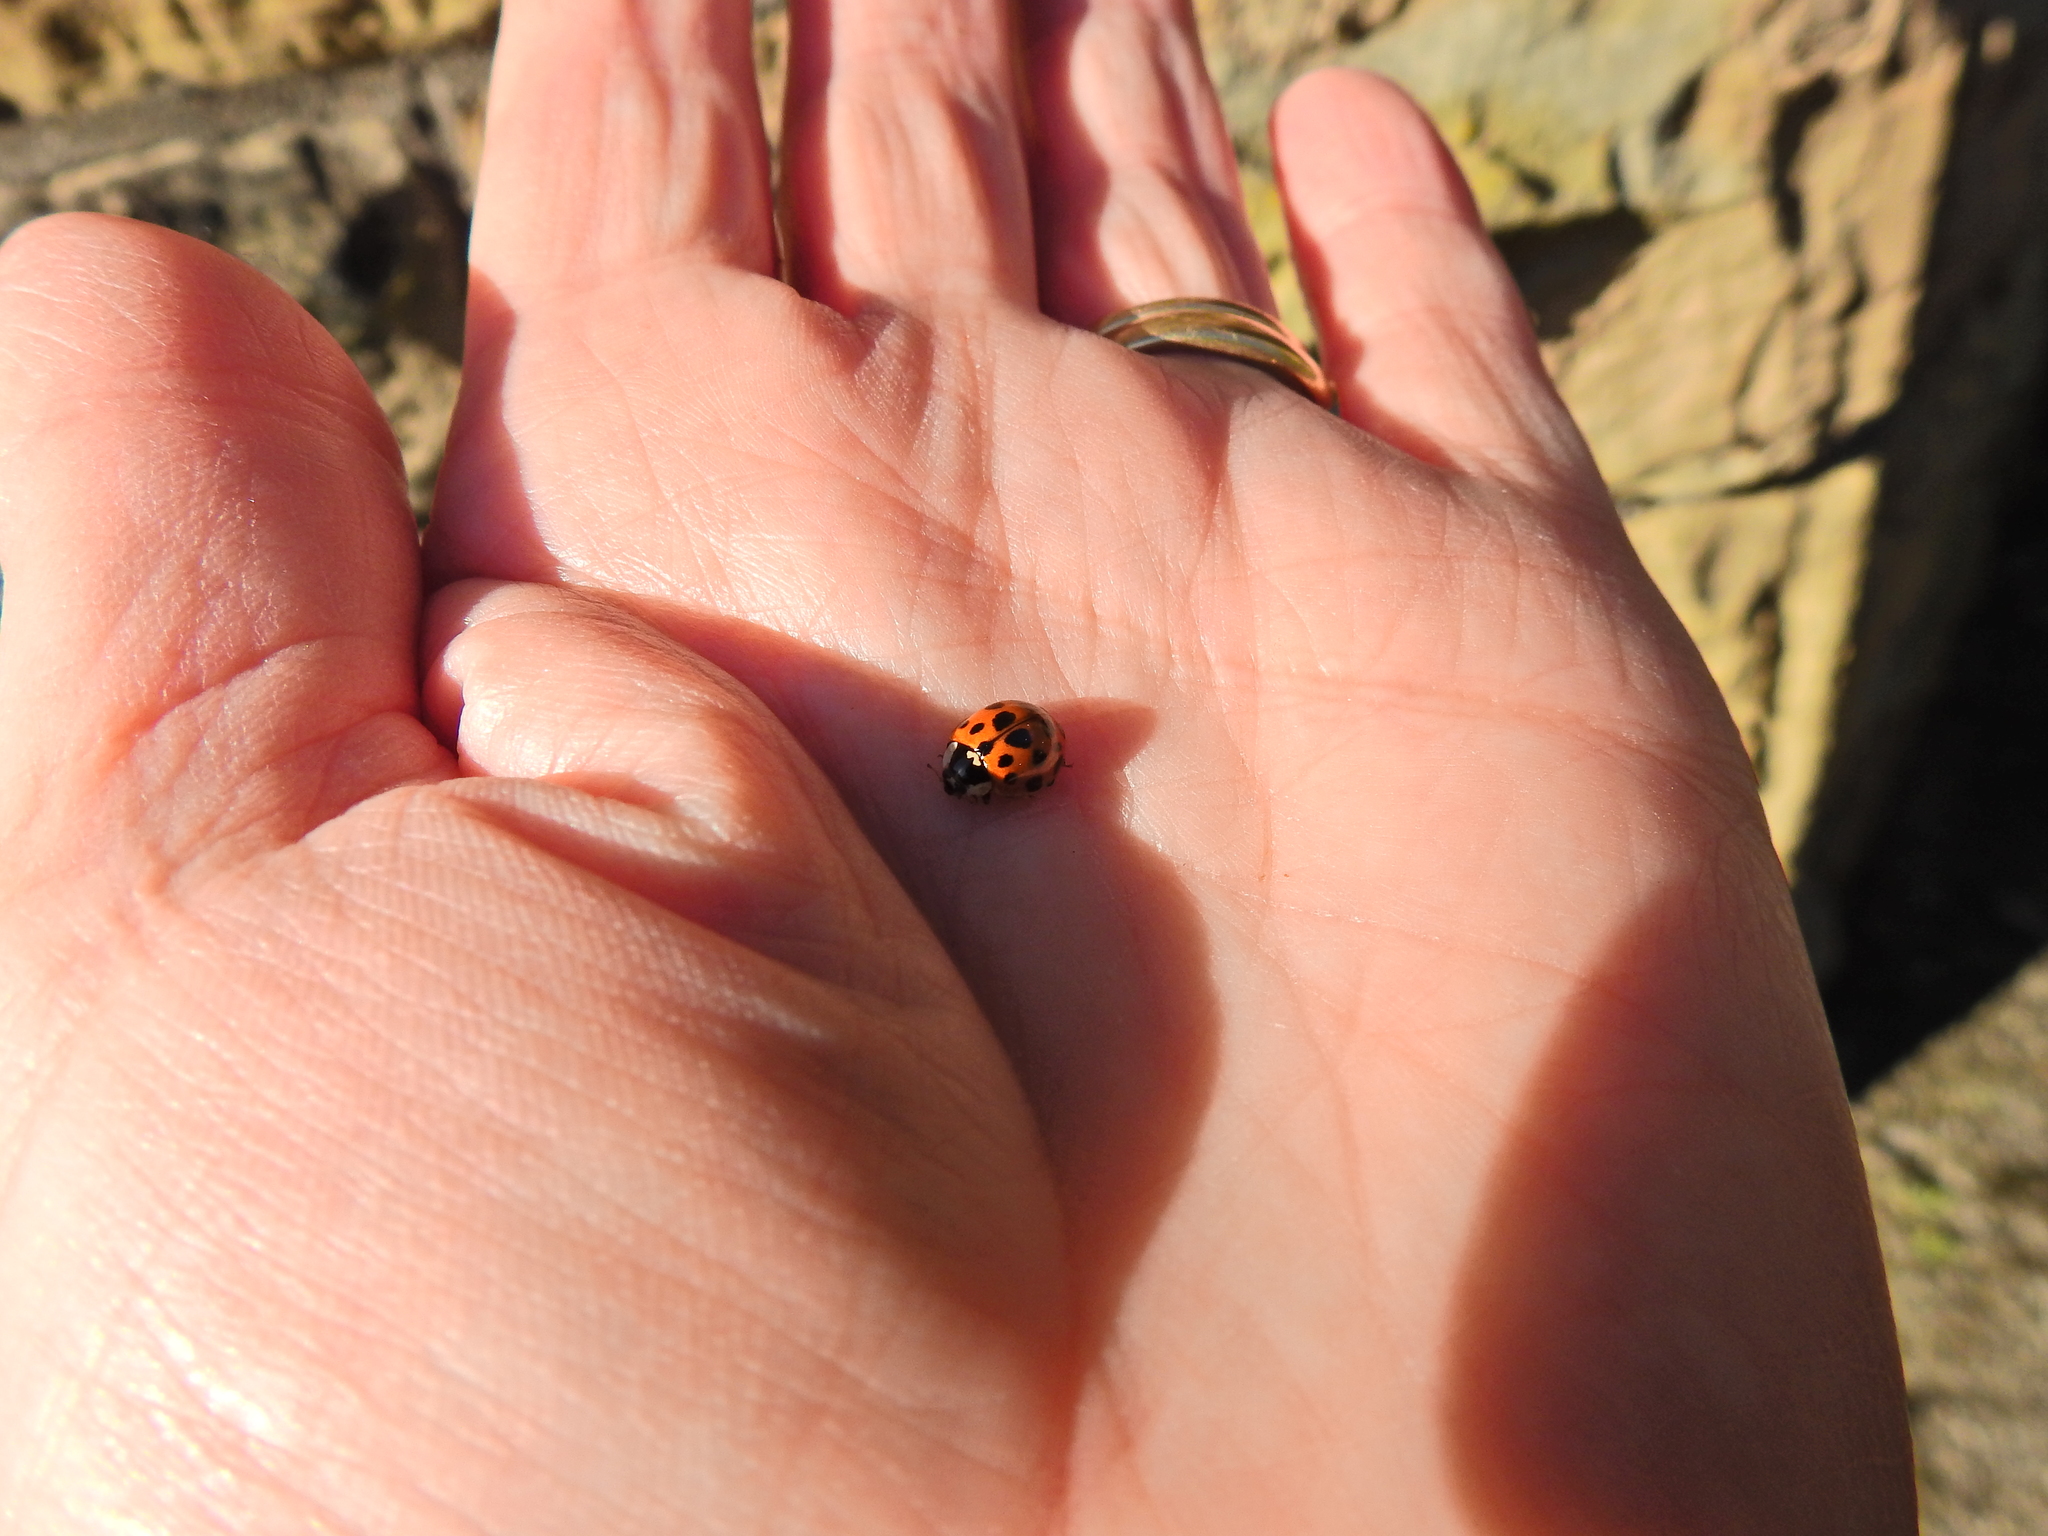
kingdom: Animalia
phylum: Arthropoda
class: Insecta
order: Coleoptera
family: Coccinellidae
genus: Harmonia
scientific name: Harmonia axyridis
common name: Harlequin ladybird
